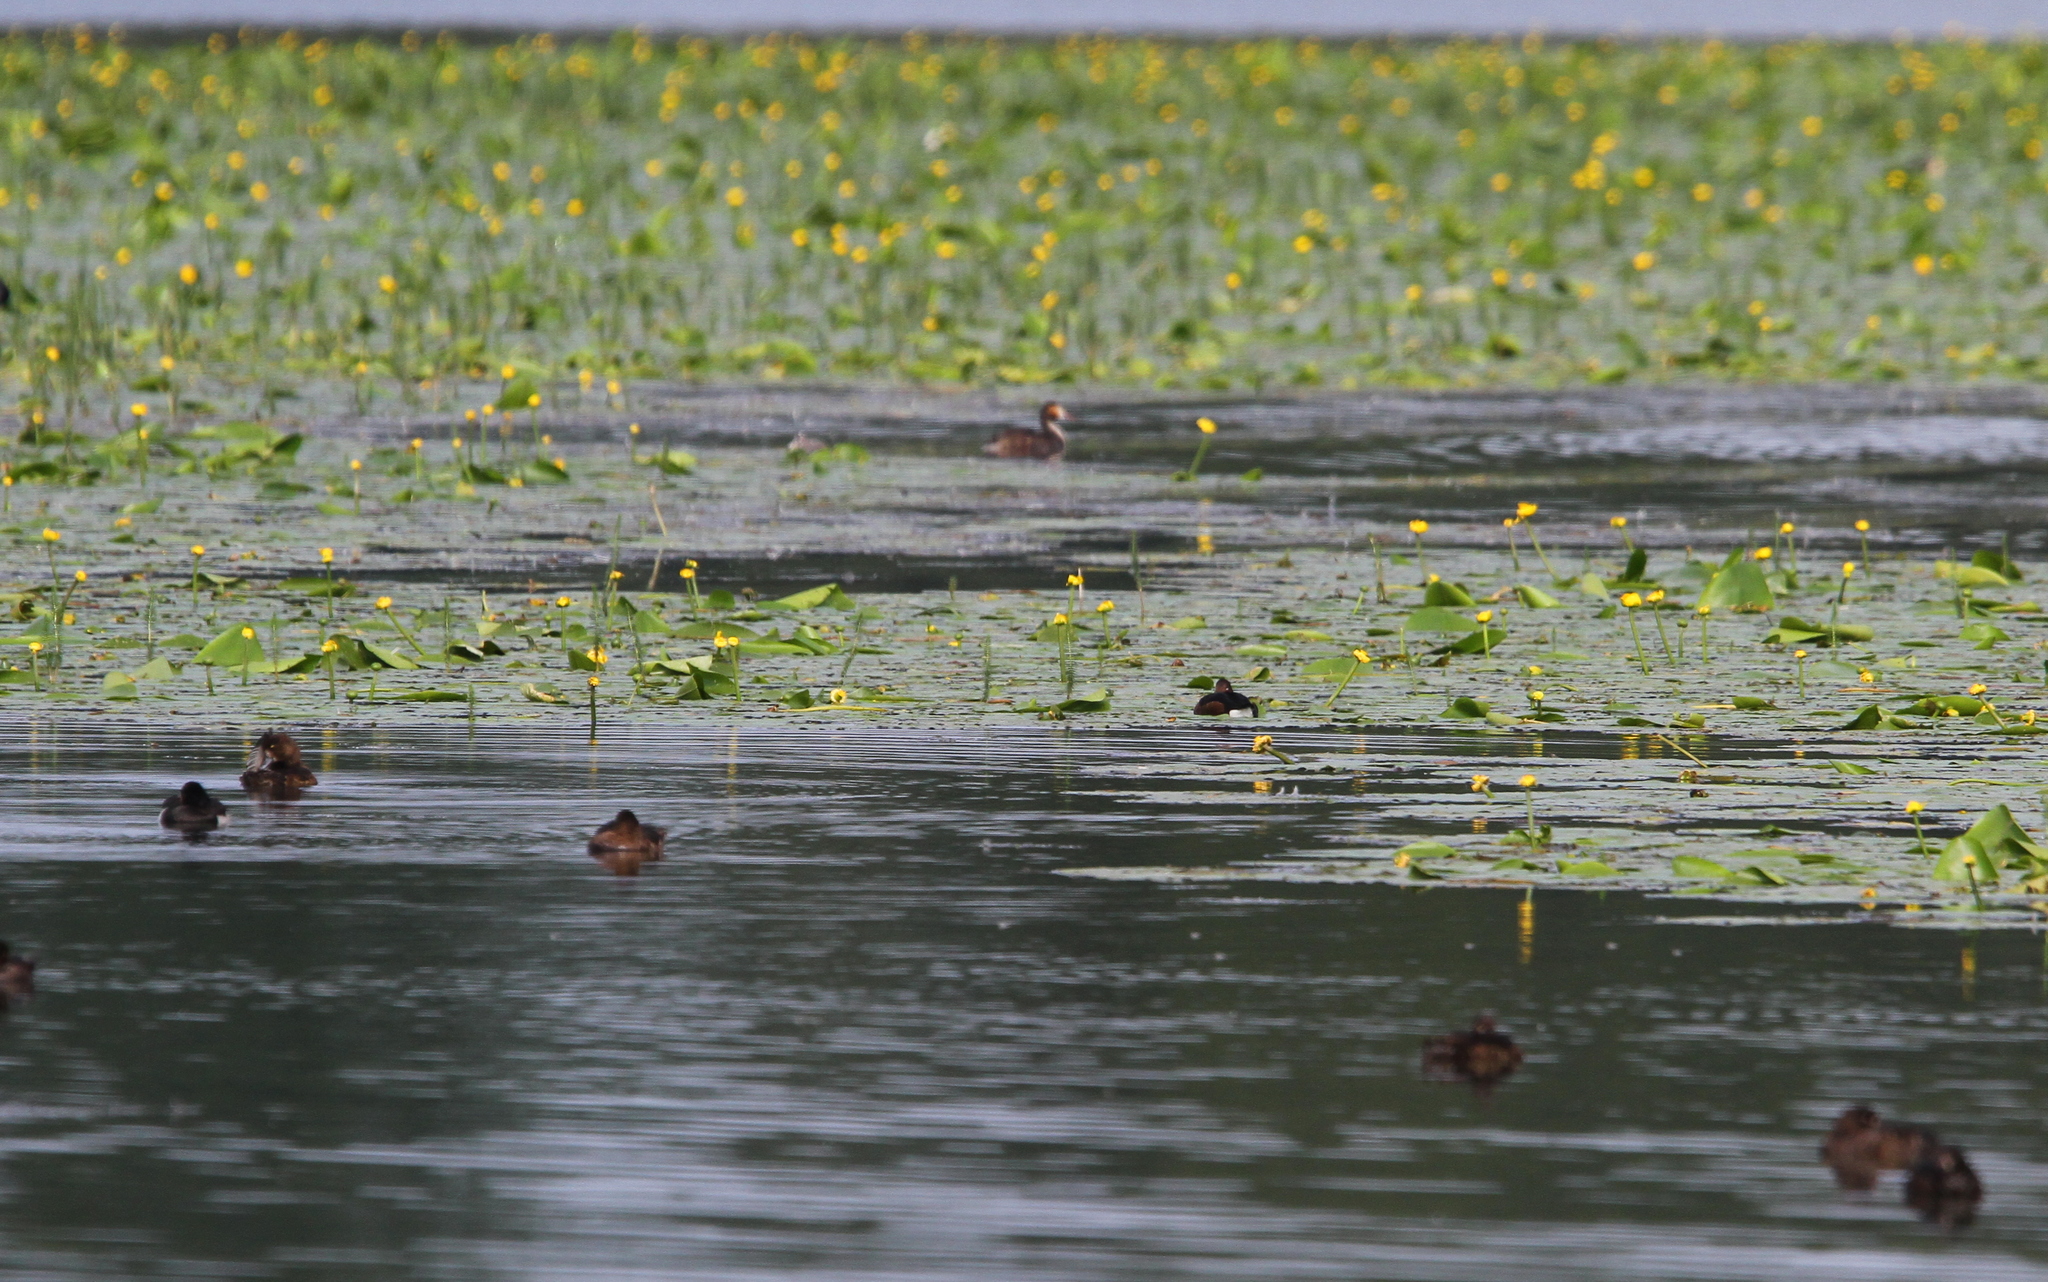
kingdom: Animalia
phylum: Chordata
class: Aves
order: Anseriformes
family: Anatidae
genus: Aythya
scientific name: Aythya nyroca
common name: Ferruginous duck
